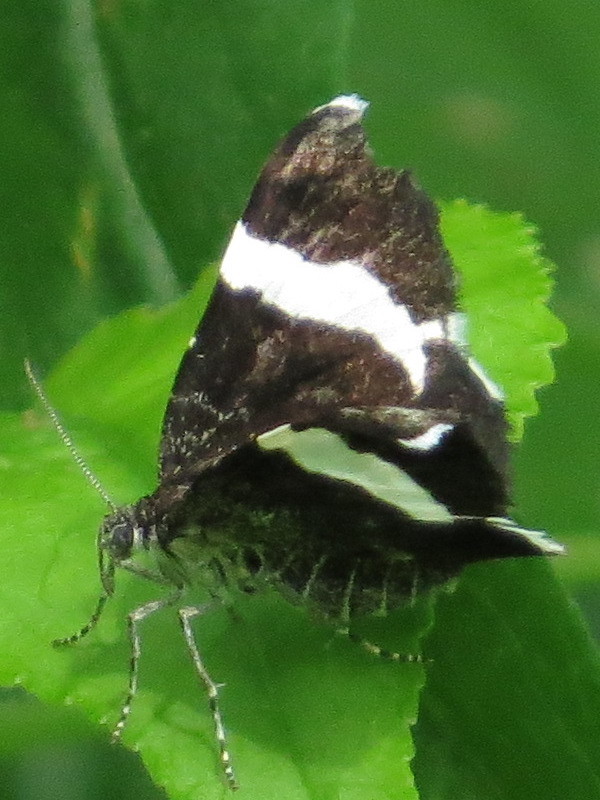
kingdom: Animalia
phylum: Arthropoda
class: Insecta
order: Lepidoptera
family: Geometridae
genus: Trichodezia
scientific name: Trichodezia albovittata
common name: White striped black
